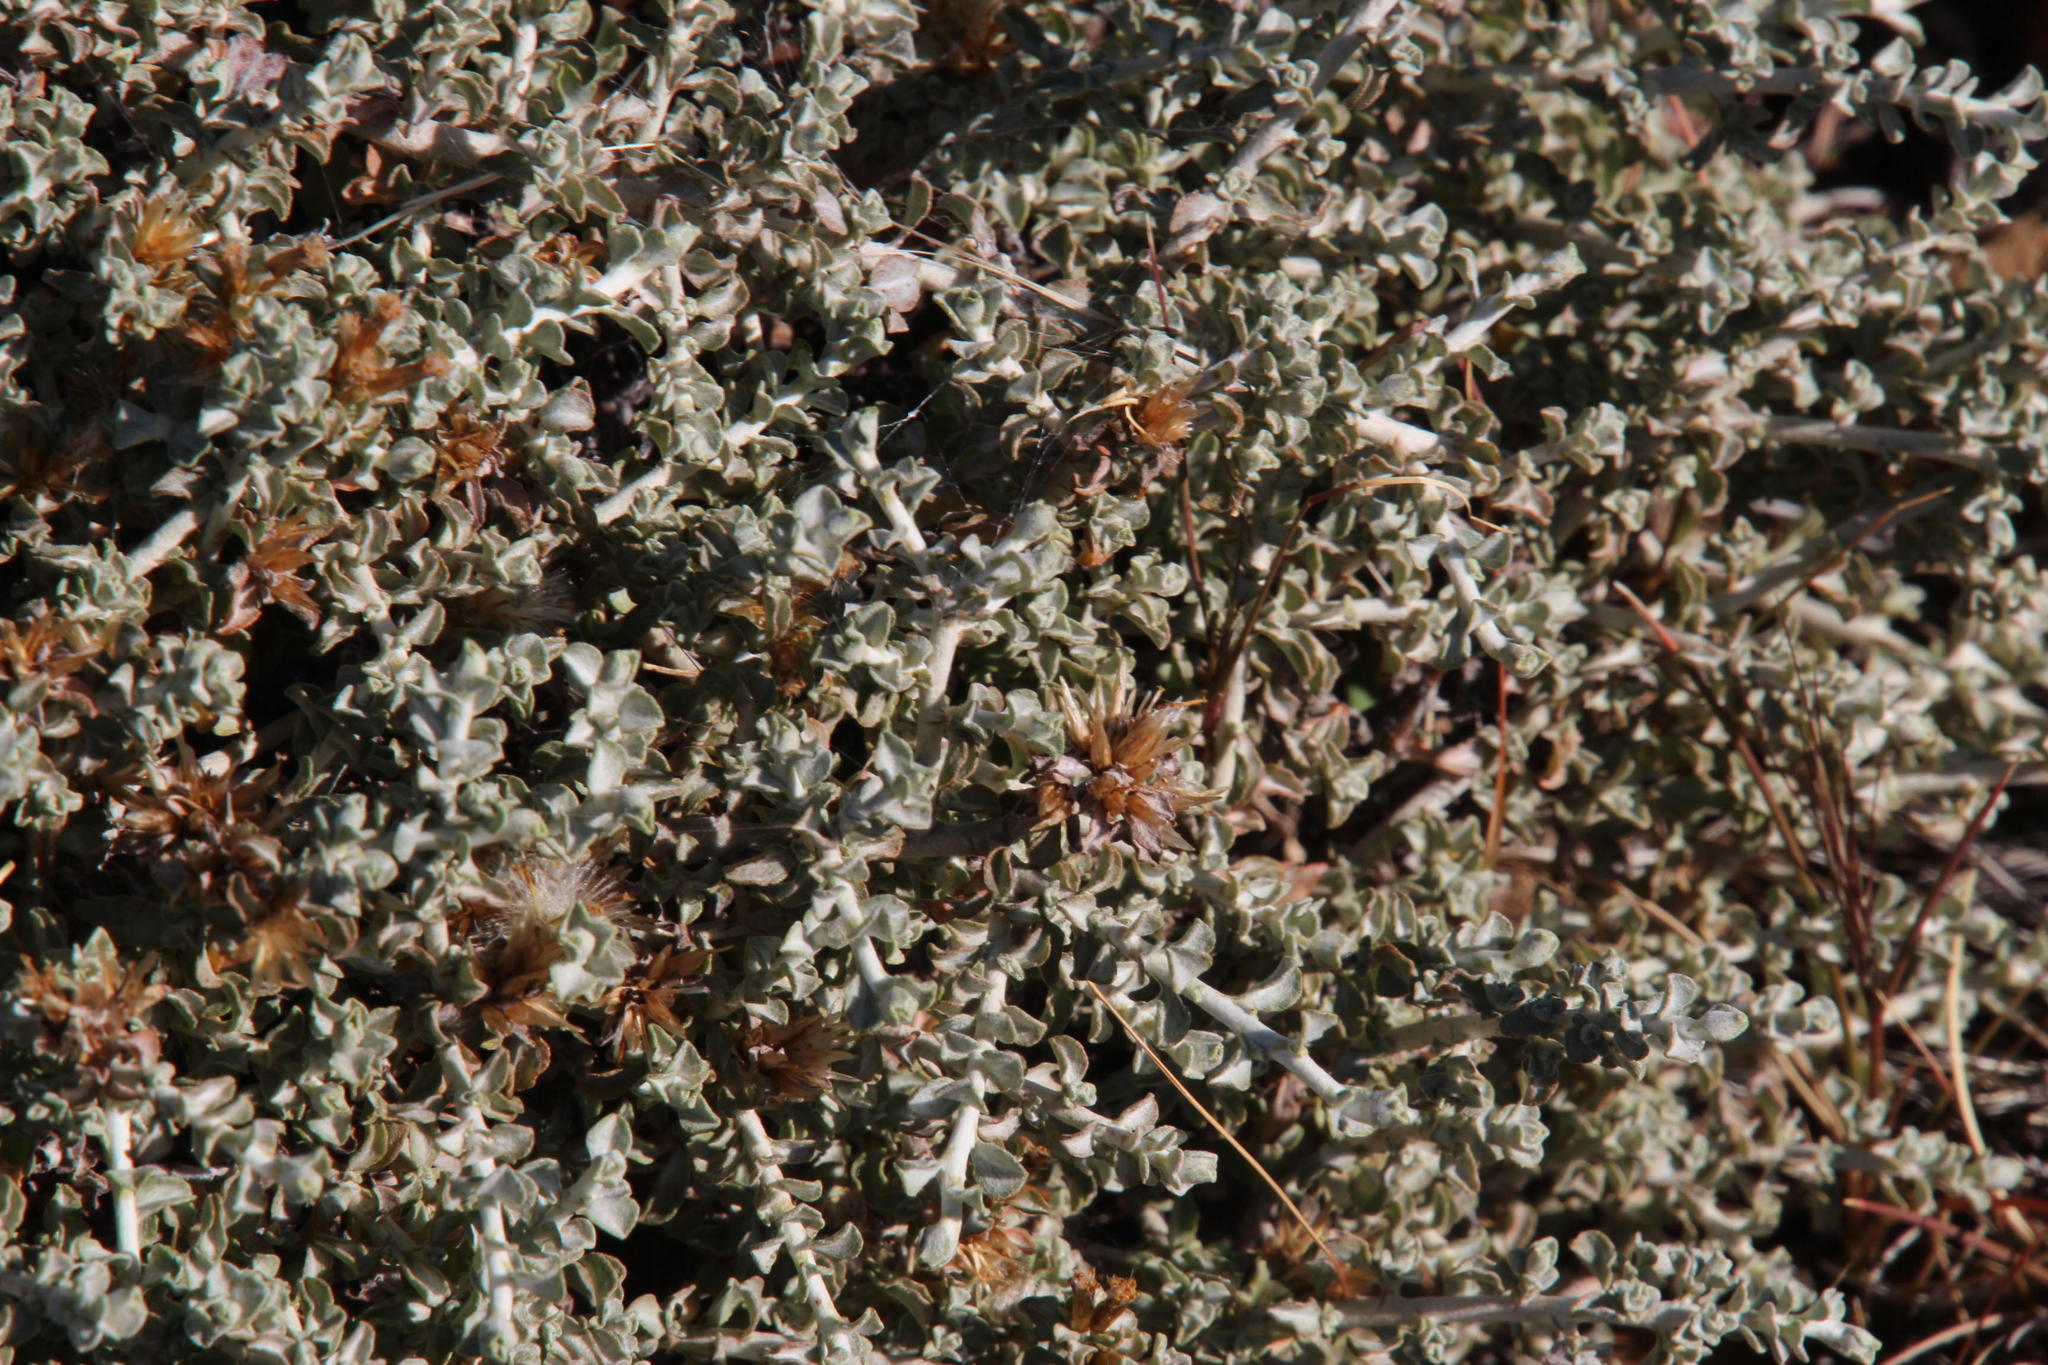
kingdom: Plantae
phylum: Tracheophyta
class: Magnoliopsida
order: Asterales
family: Asteraceae
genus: Helichrysum
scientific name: Helichrysum lucilioides
